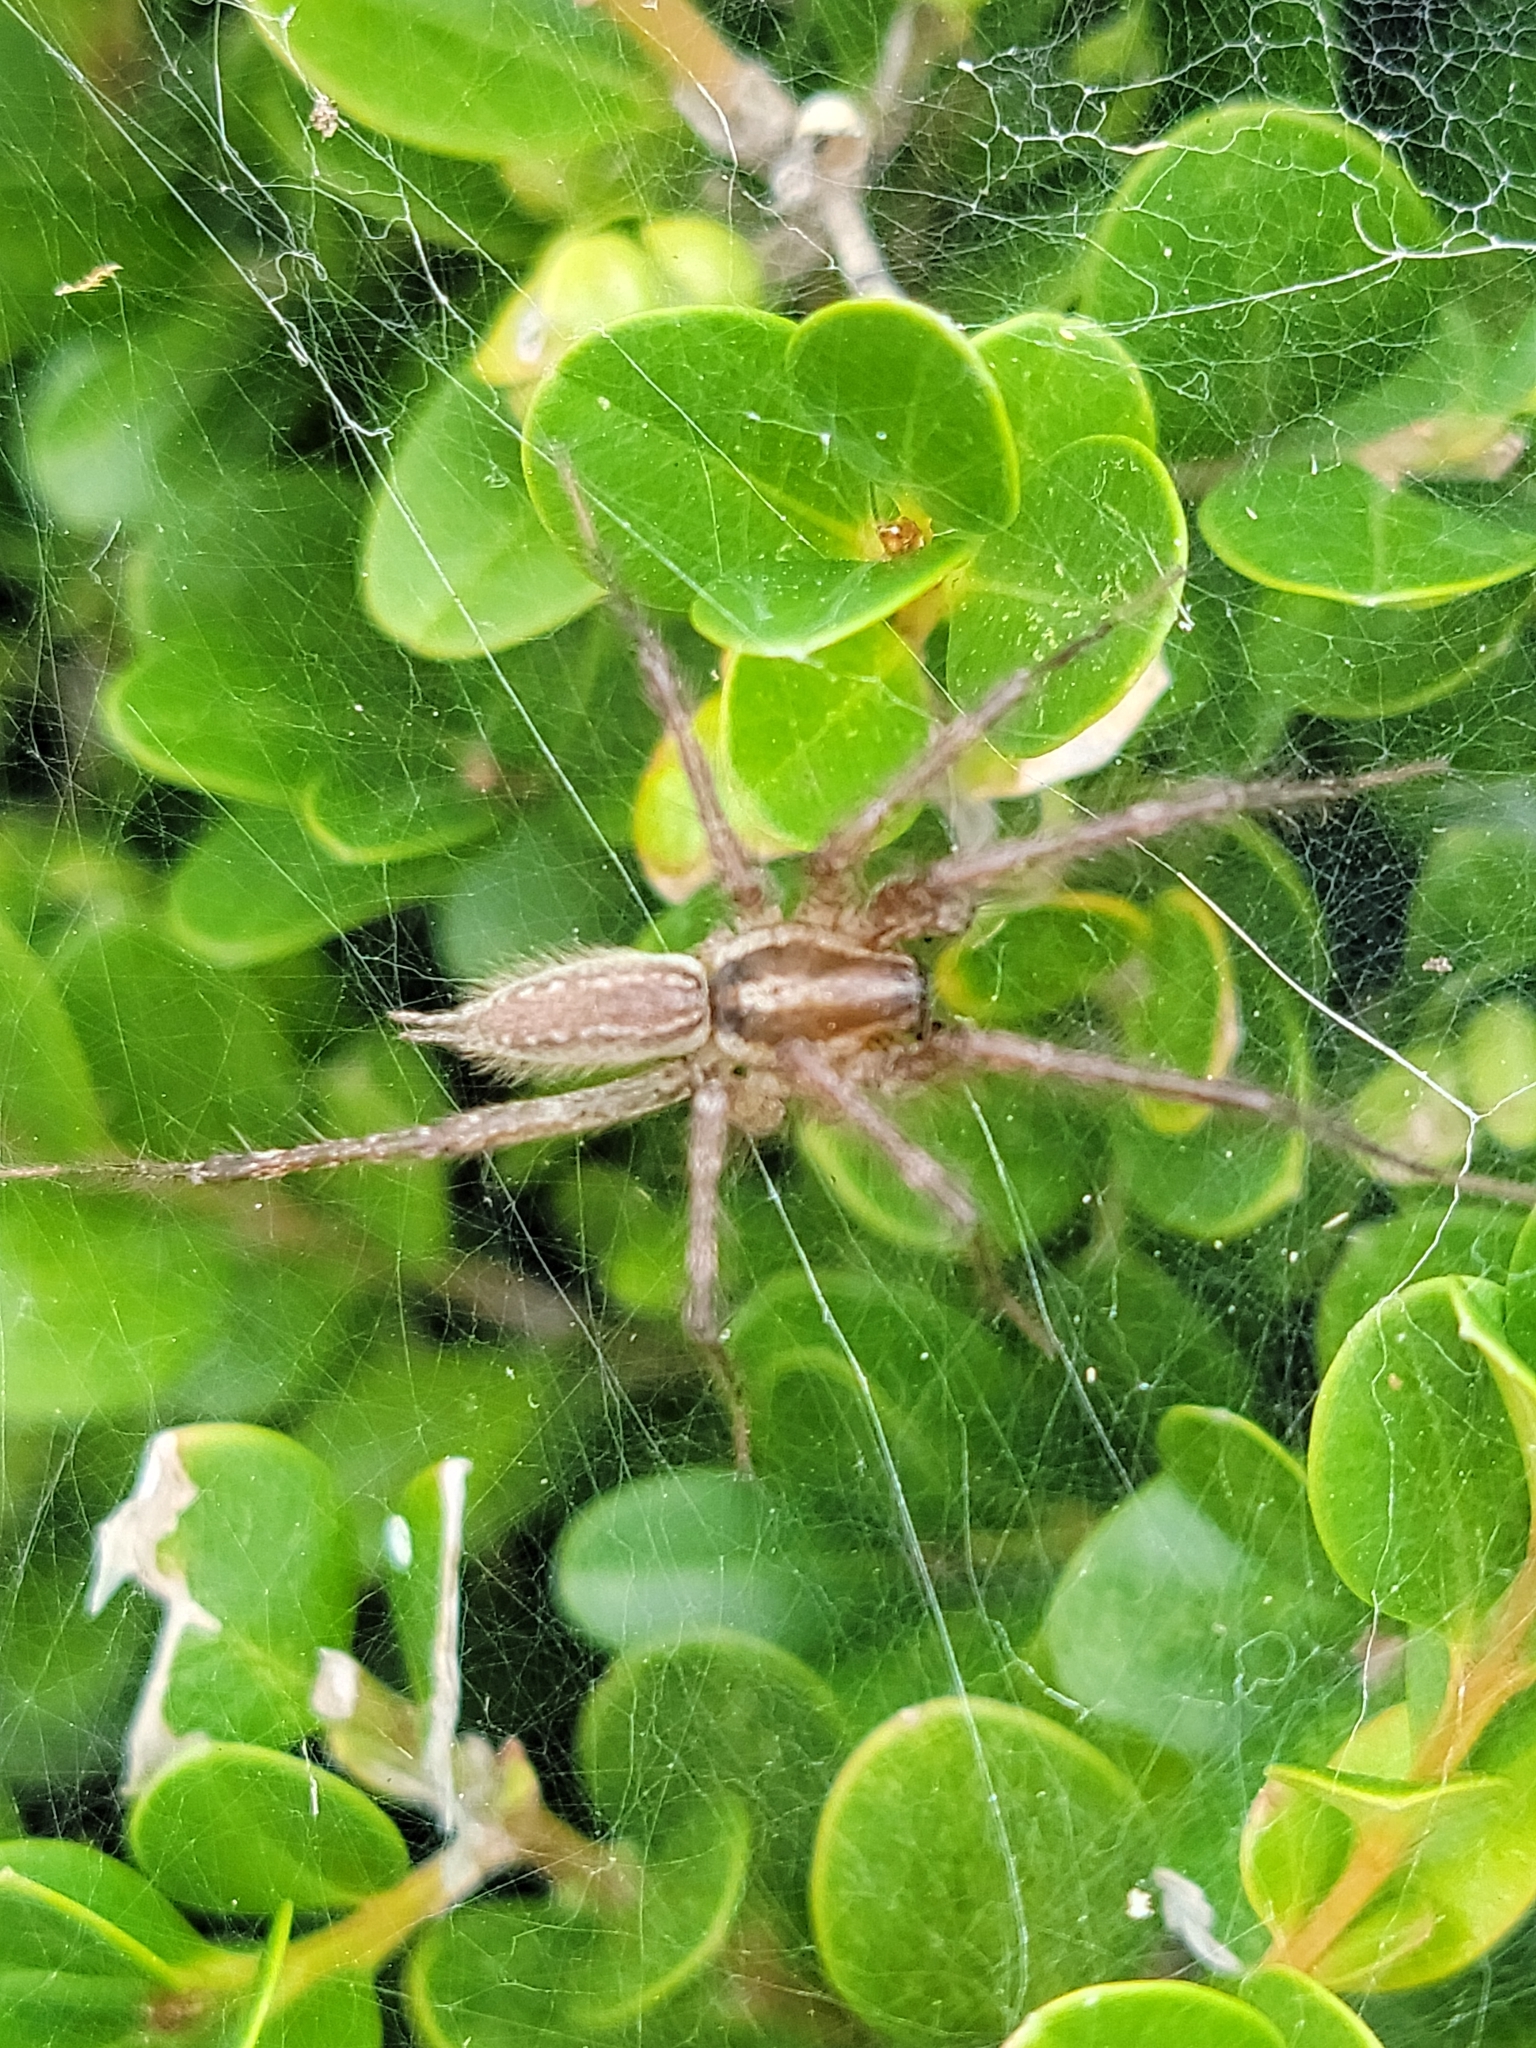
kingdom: Animalia
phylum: Arthropoda
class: Arachnida
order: Araneae
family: Agelenidae
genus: Agelenopsis
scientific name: Agelenopsis
